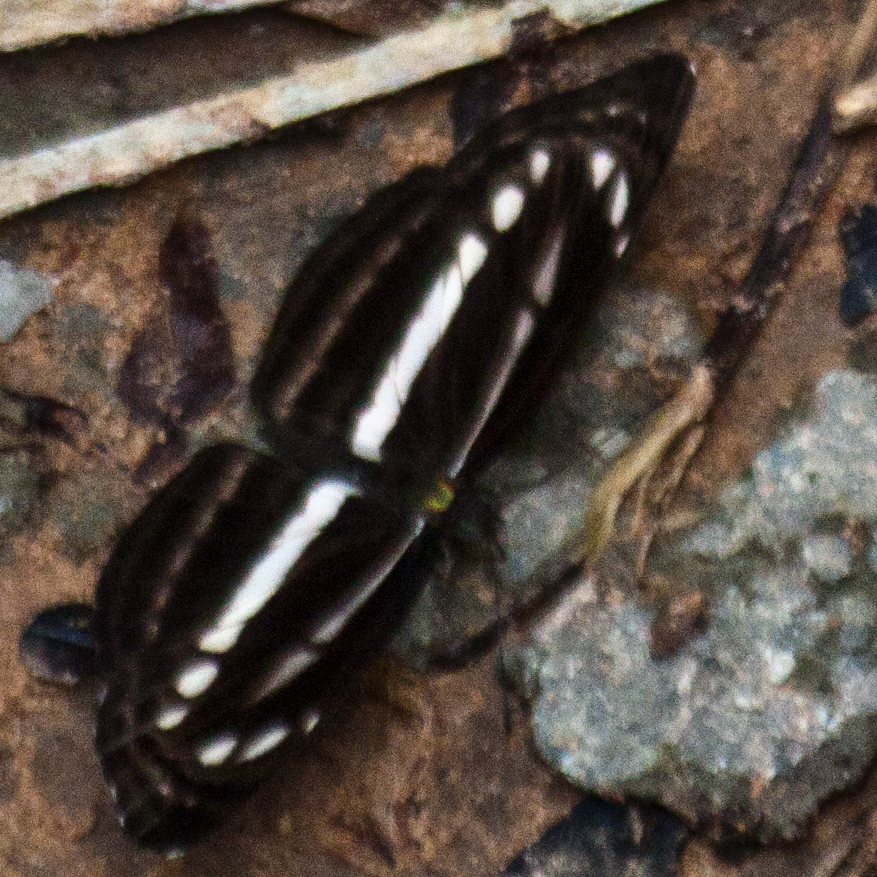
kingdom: Animalia
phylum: Arthropoda
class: Insecta
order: Lepidoptera
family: Nymphalidae
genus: Neptis
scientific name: Neptis clinia
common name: Southern sullied sailer
